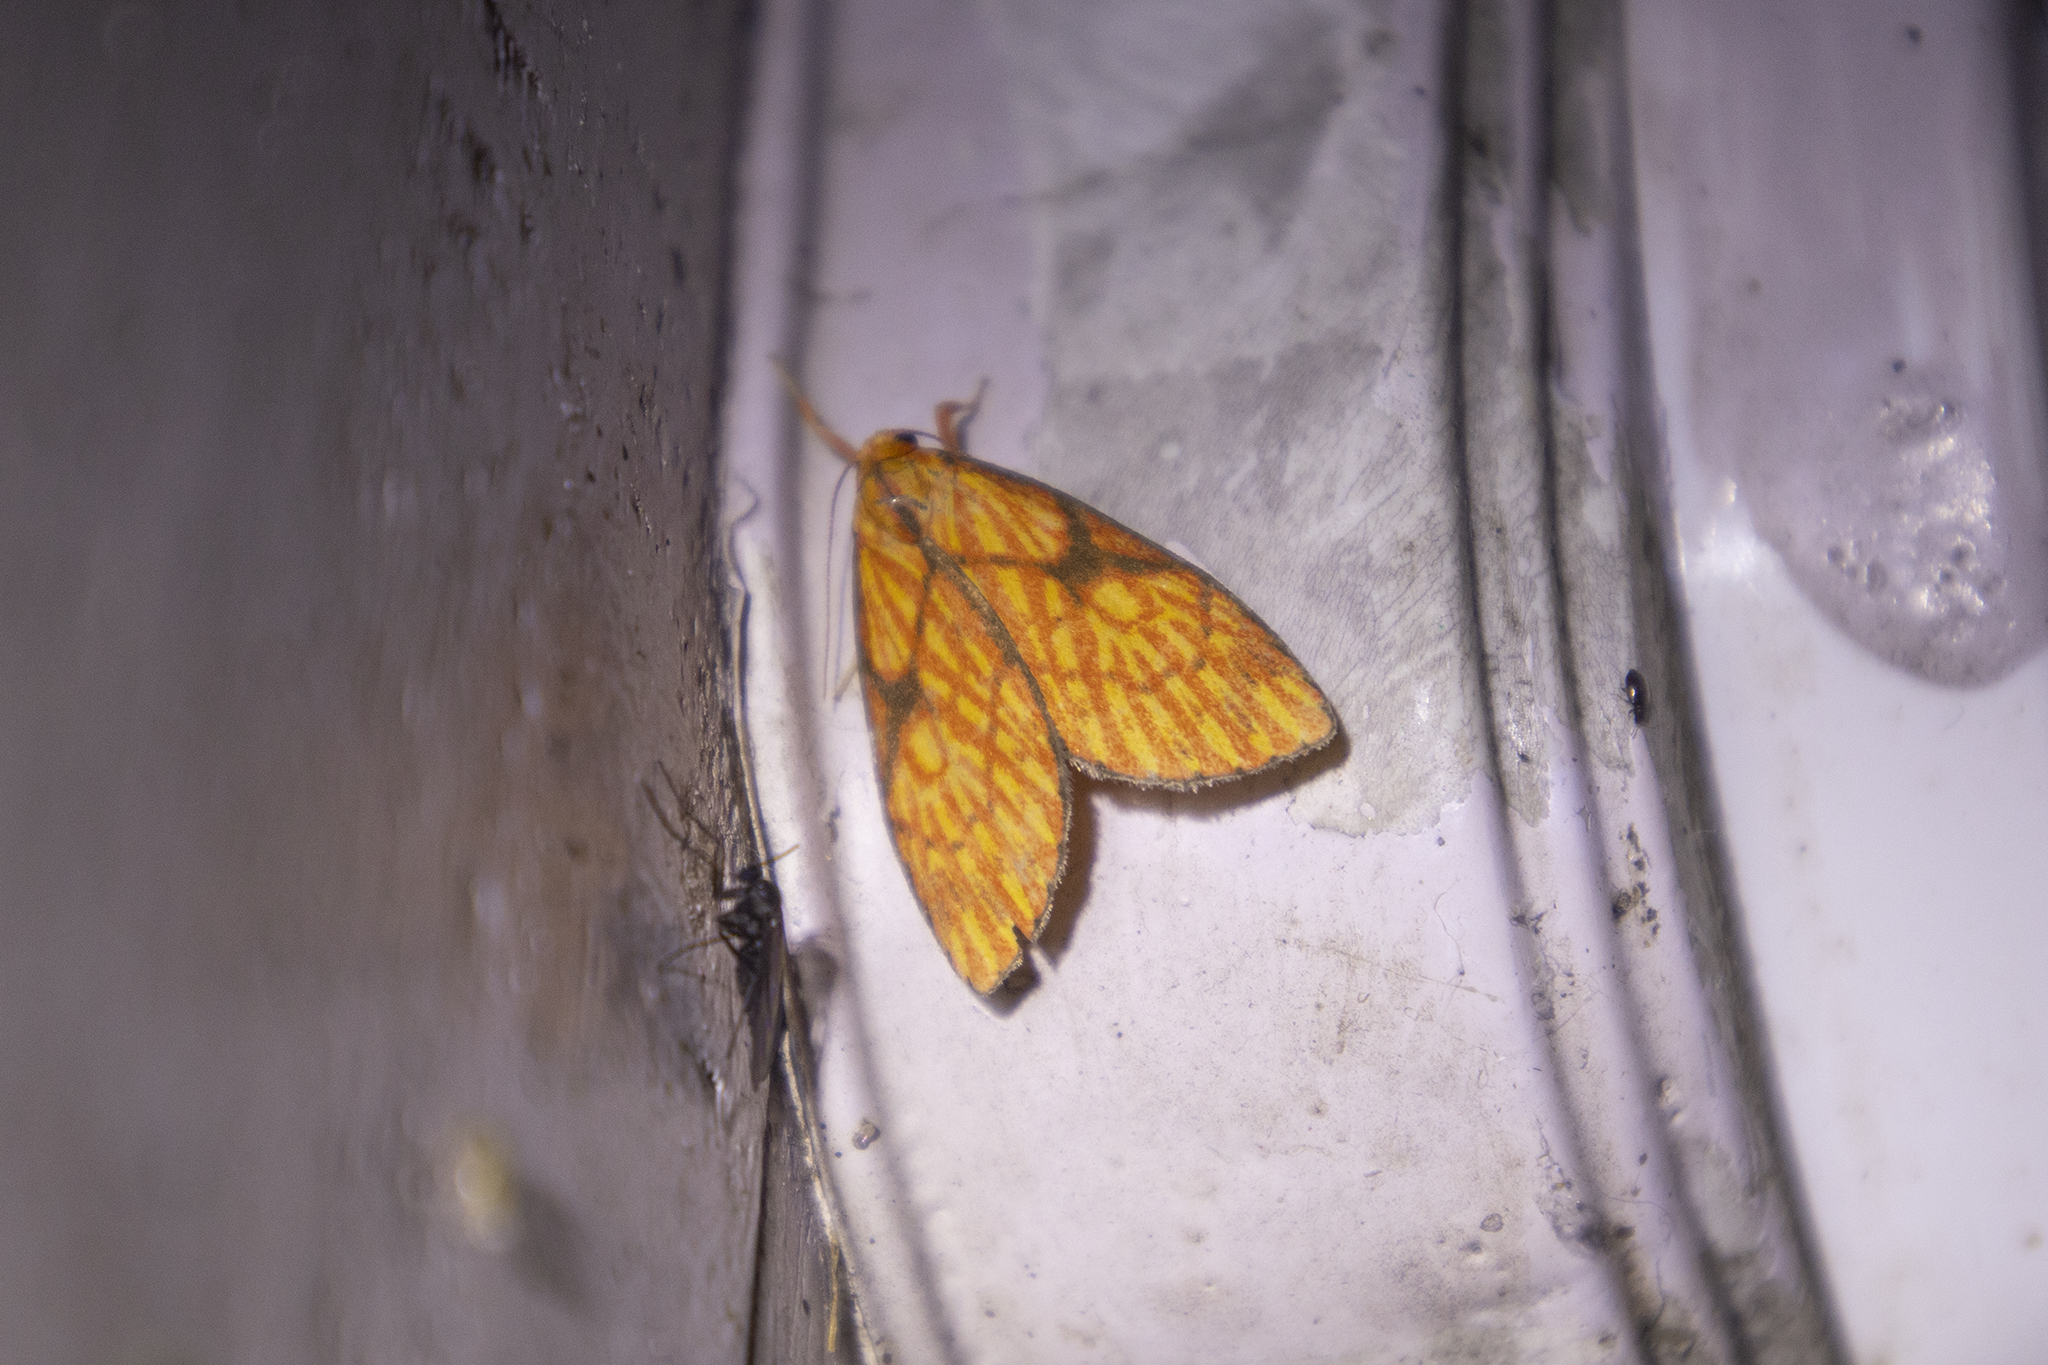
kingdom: Animalia
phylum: Arthropoda
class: Insecta
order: Lepidoptera
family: Erebidae
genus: Moorasura
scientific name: Moorasura inflexa
